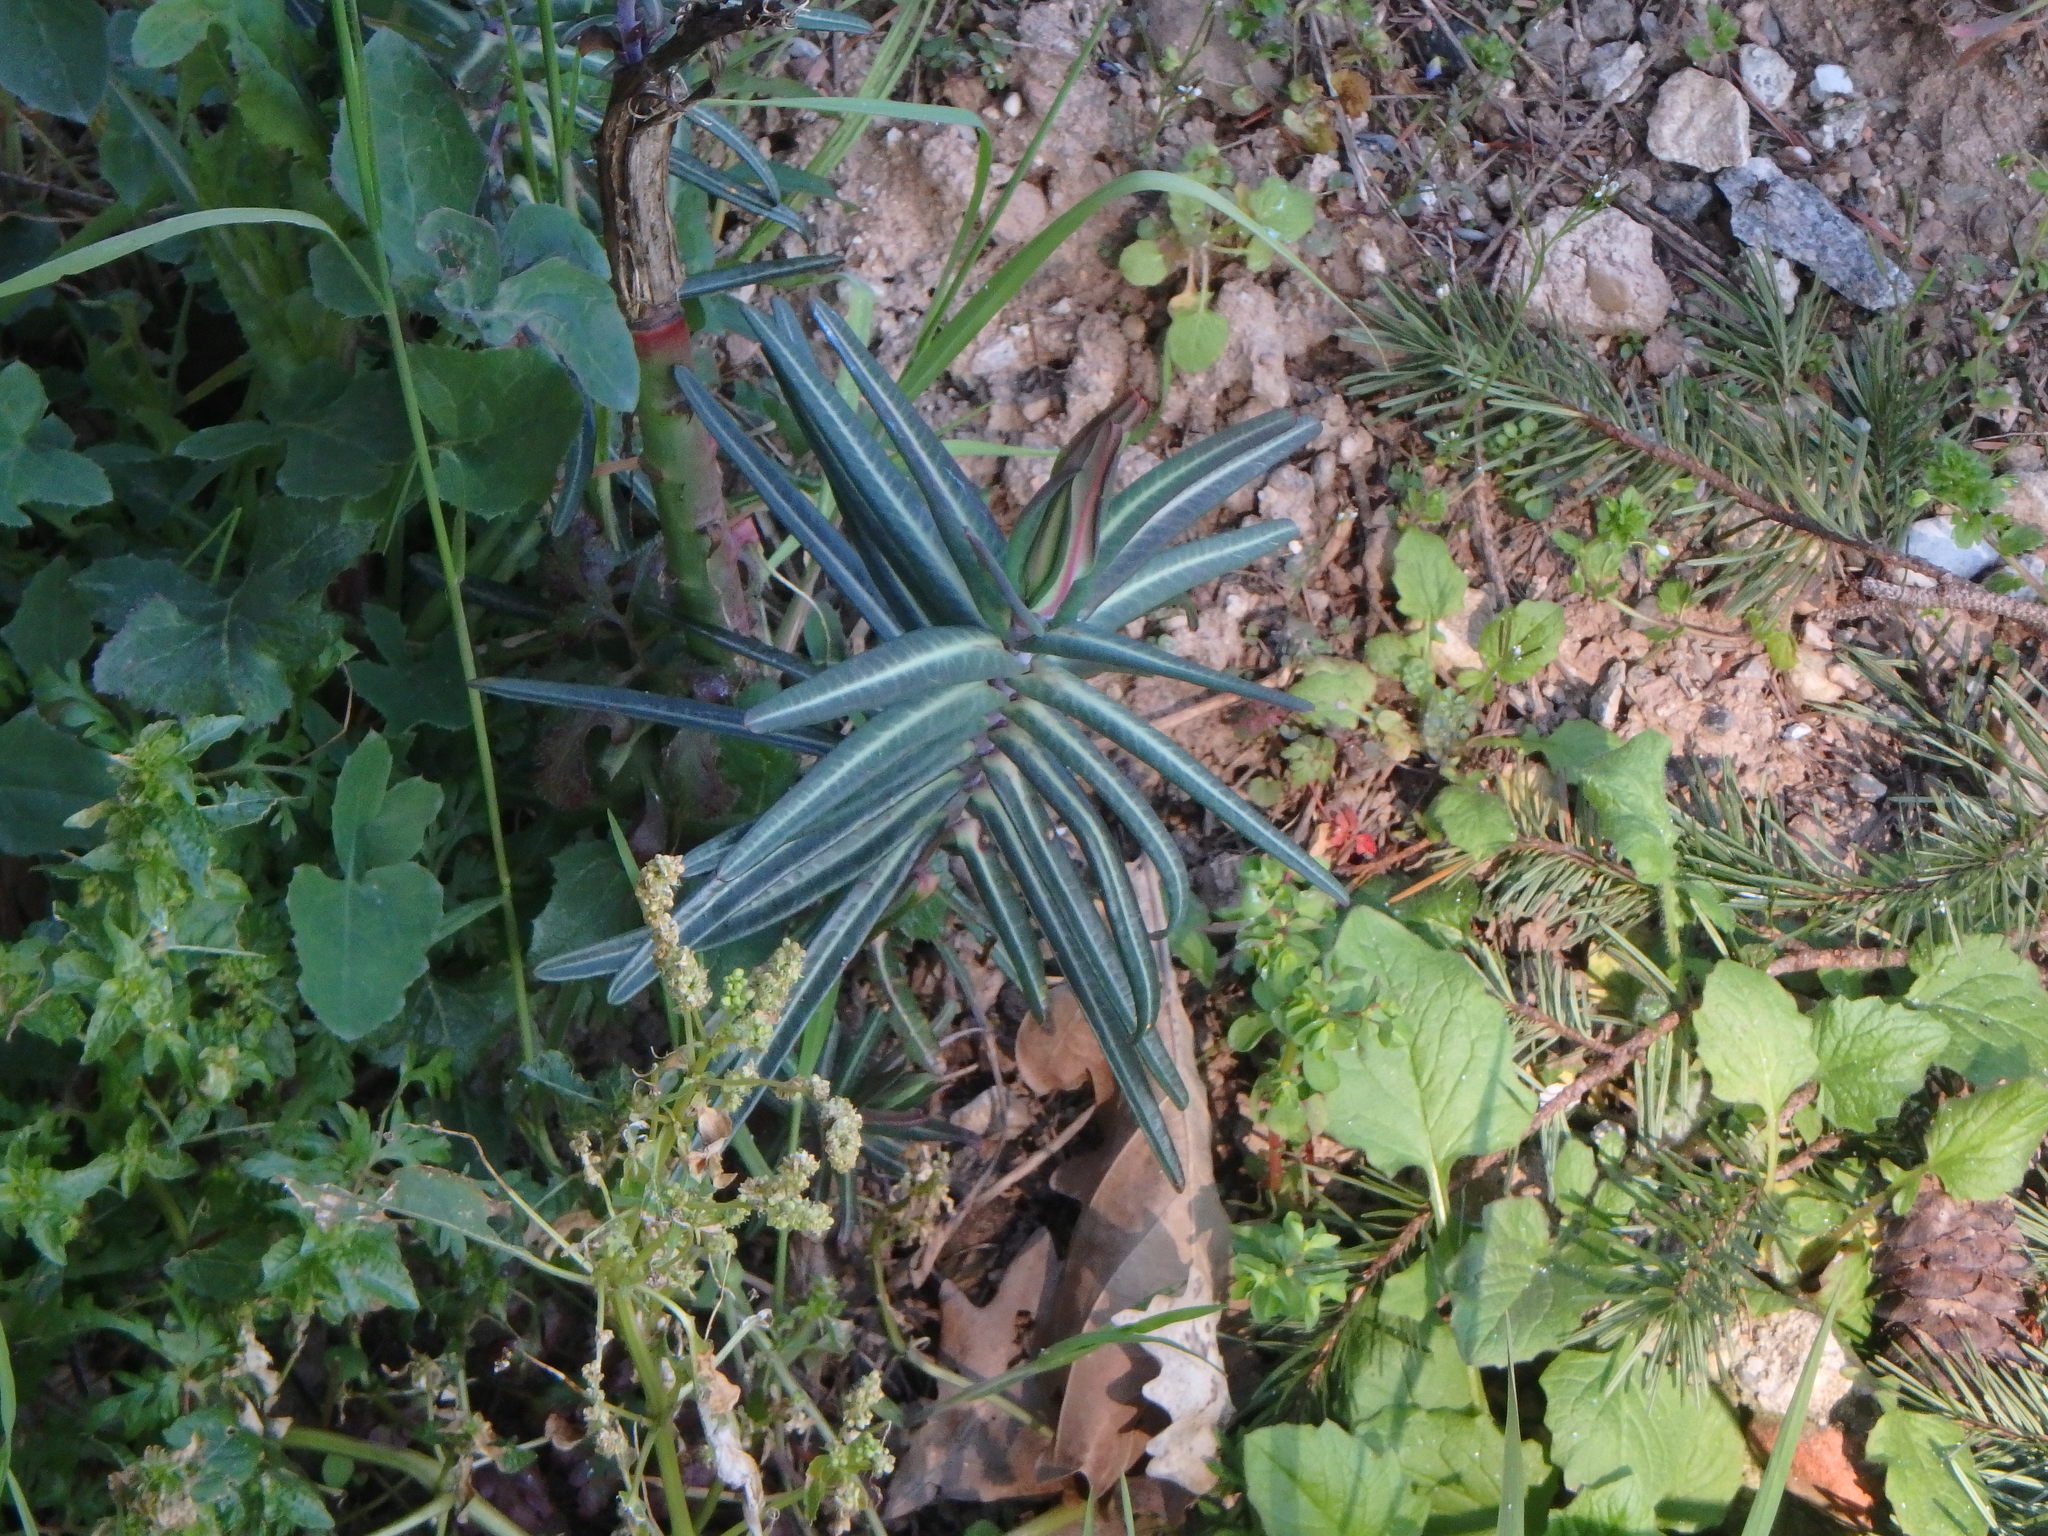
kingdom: Plantae
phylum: Tracheophyta
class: Magnoliopsida
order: Malpighiales
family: Euphorbiaceae
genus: Euphorbia
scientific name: Euphorbia lathyris
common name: Caper spurge
